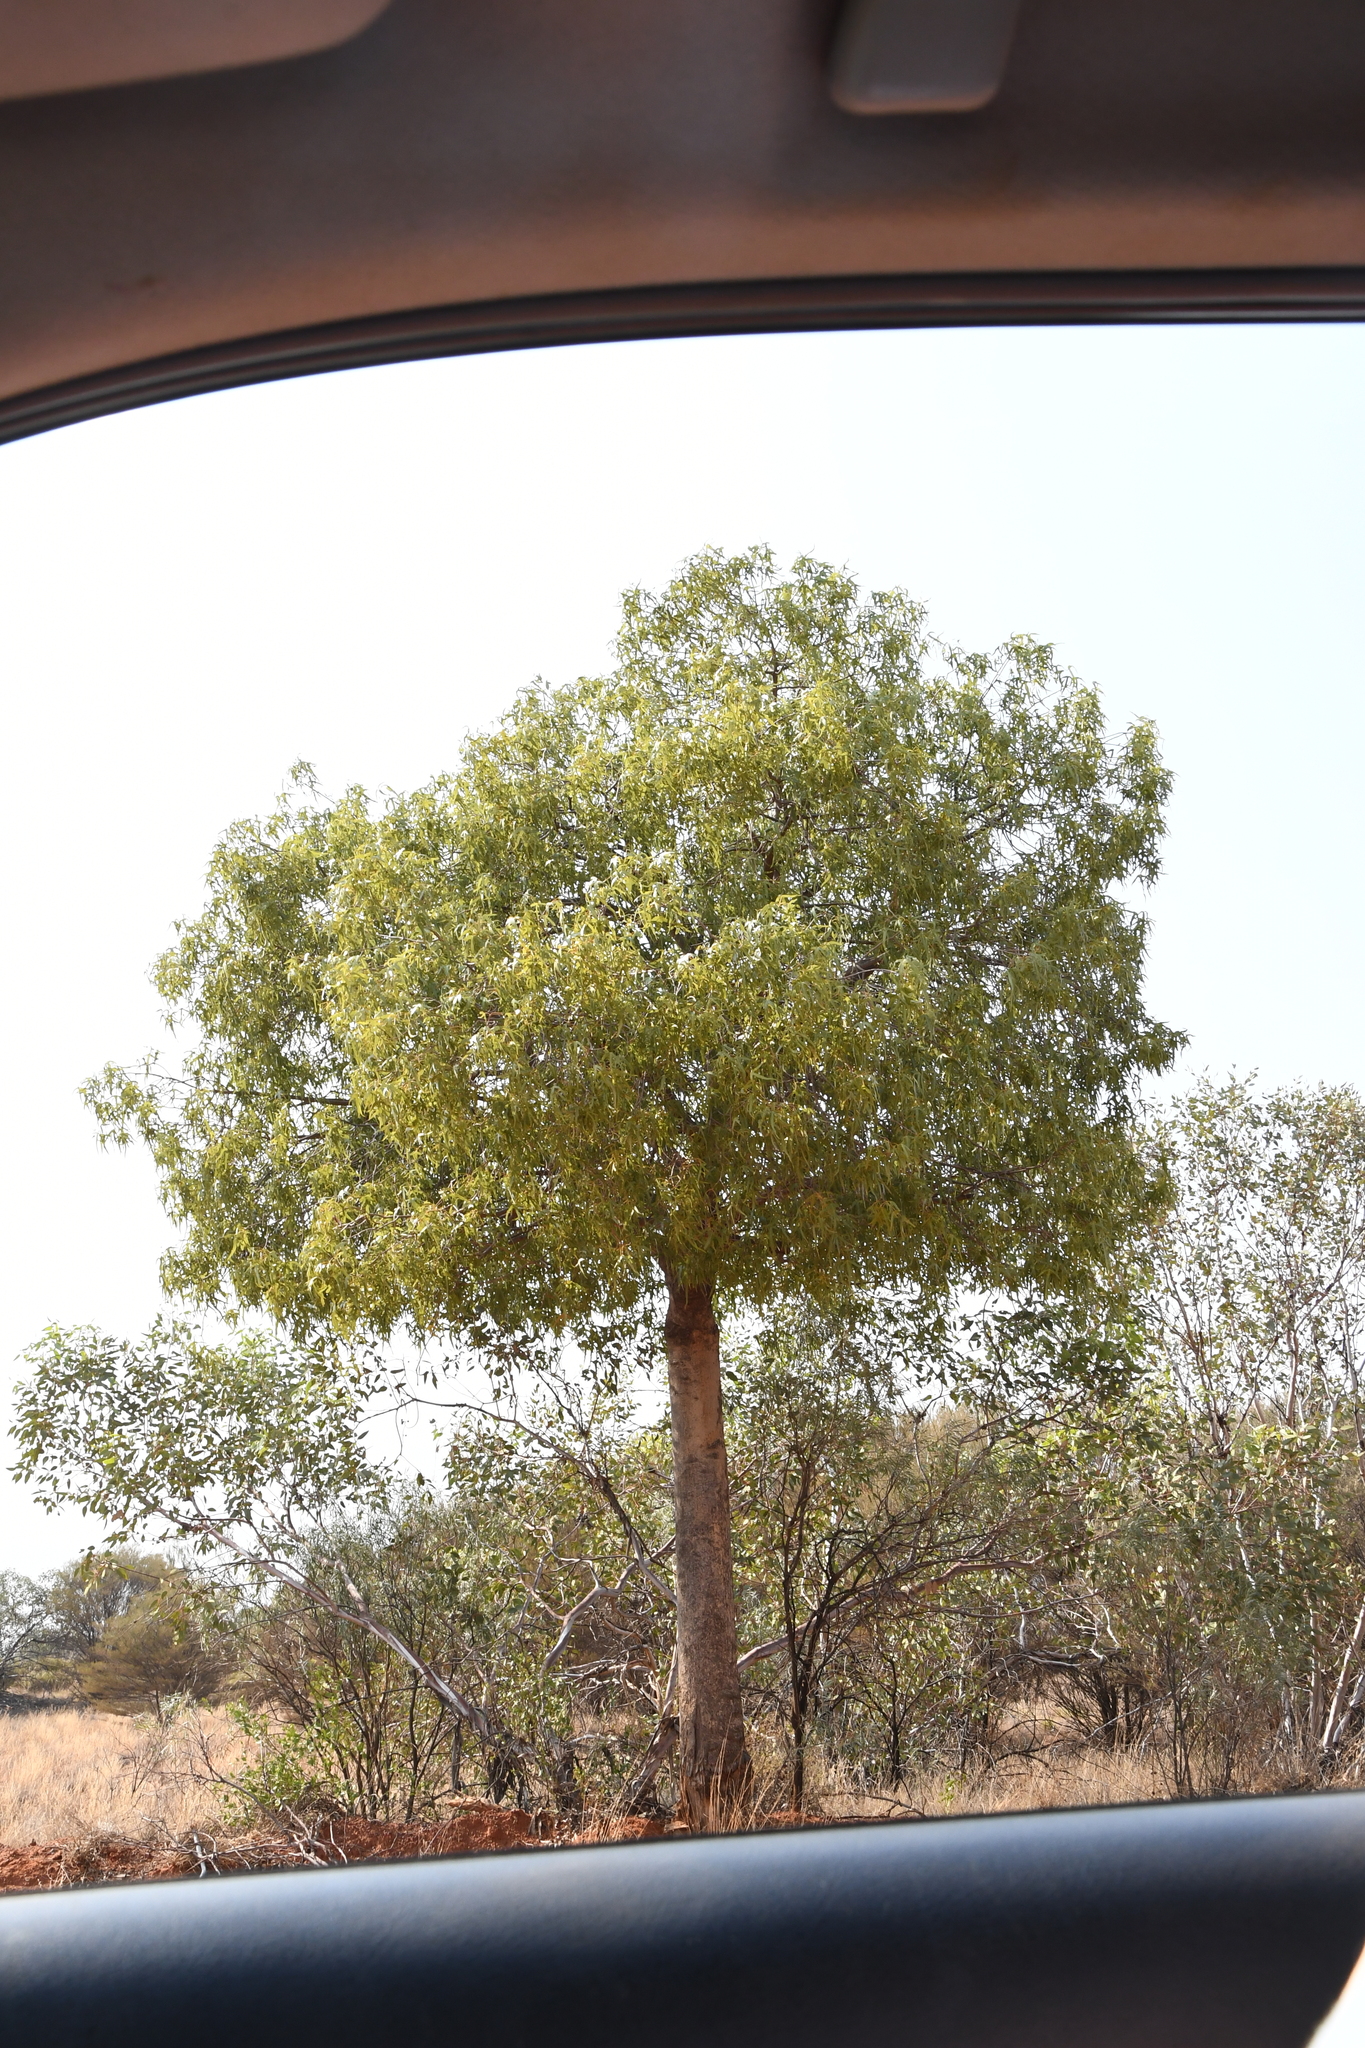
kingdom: Plantae
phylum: Tracheophyta
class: Magnoliopsida
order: Malvales
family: Malvaceae
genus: Brachychiton
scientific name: Brachychiton gregorii
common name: Desert kurrajong
